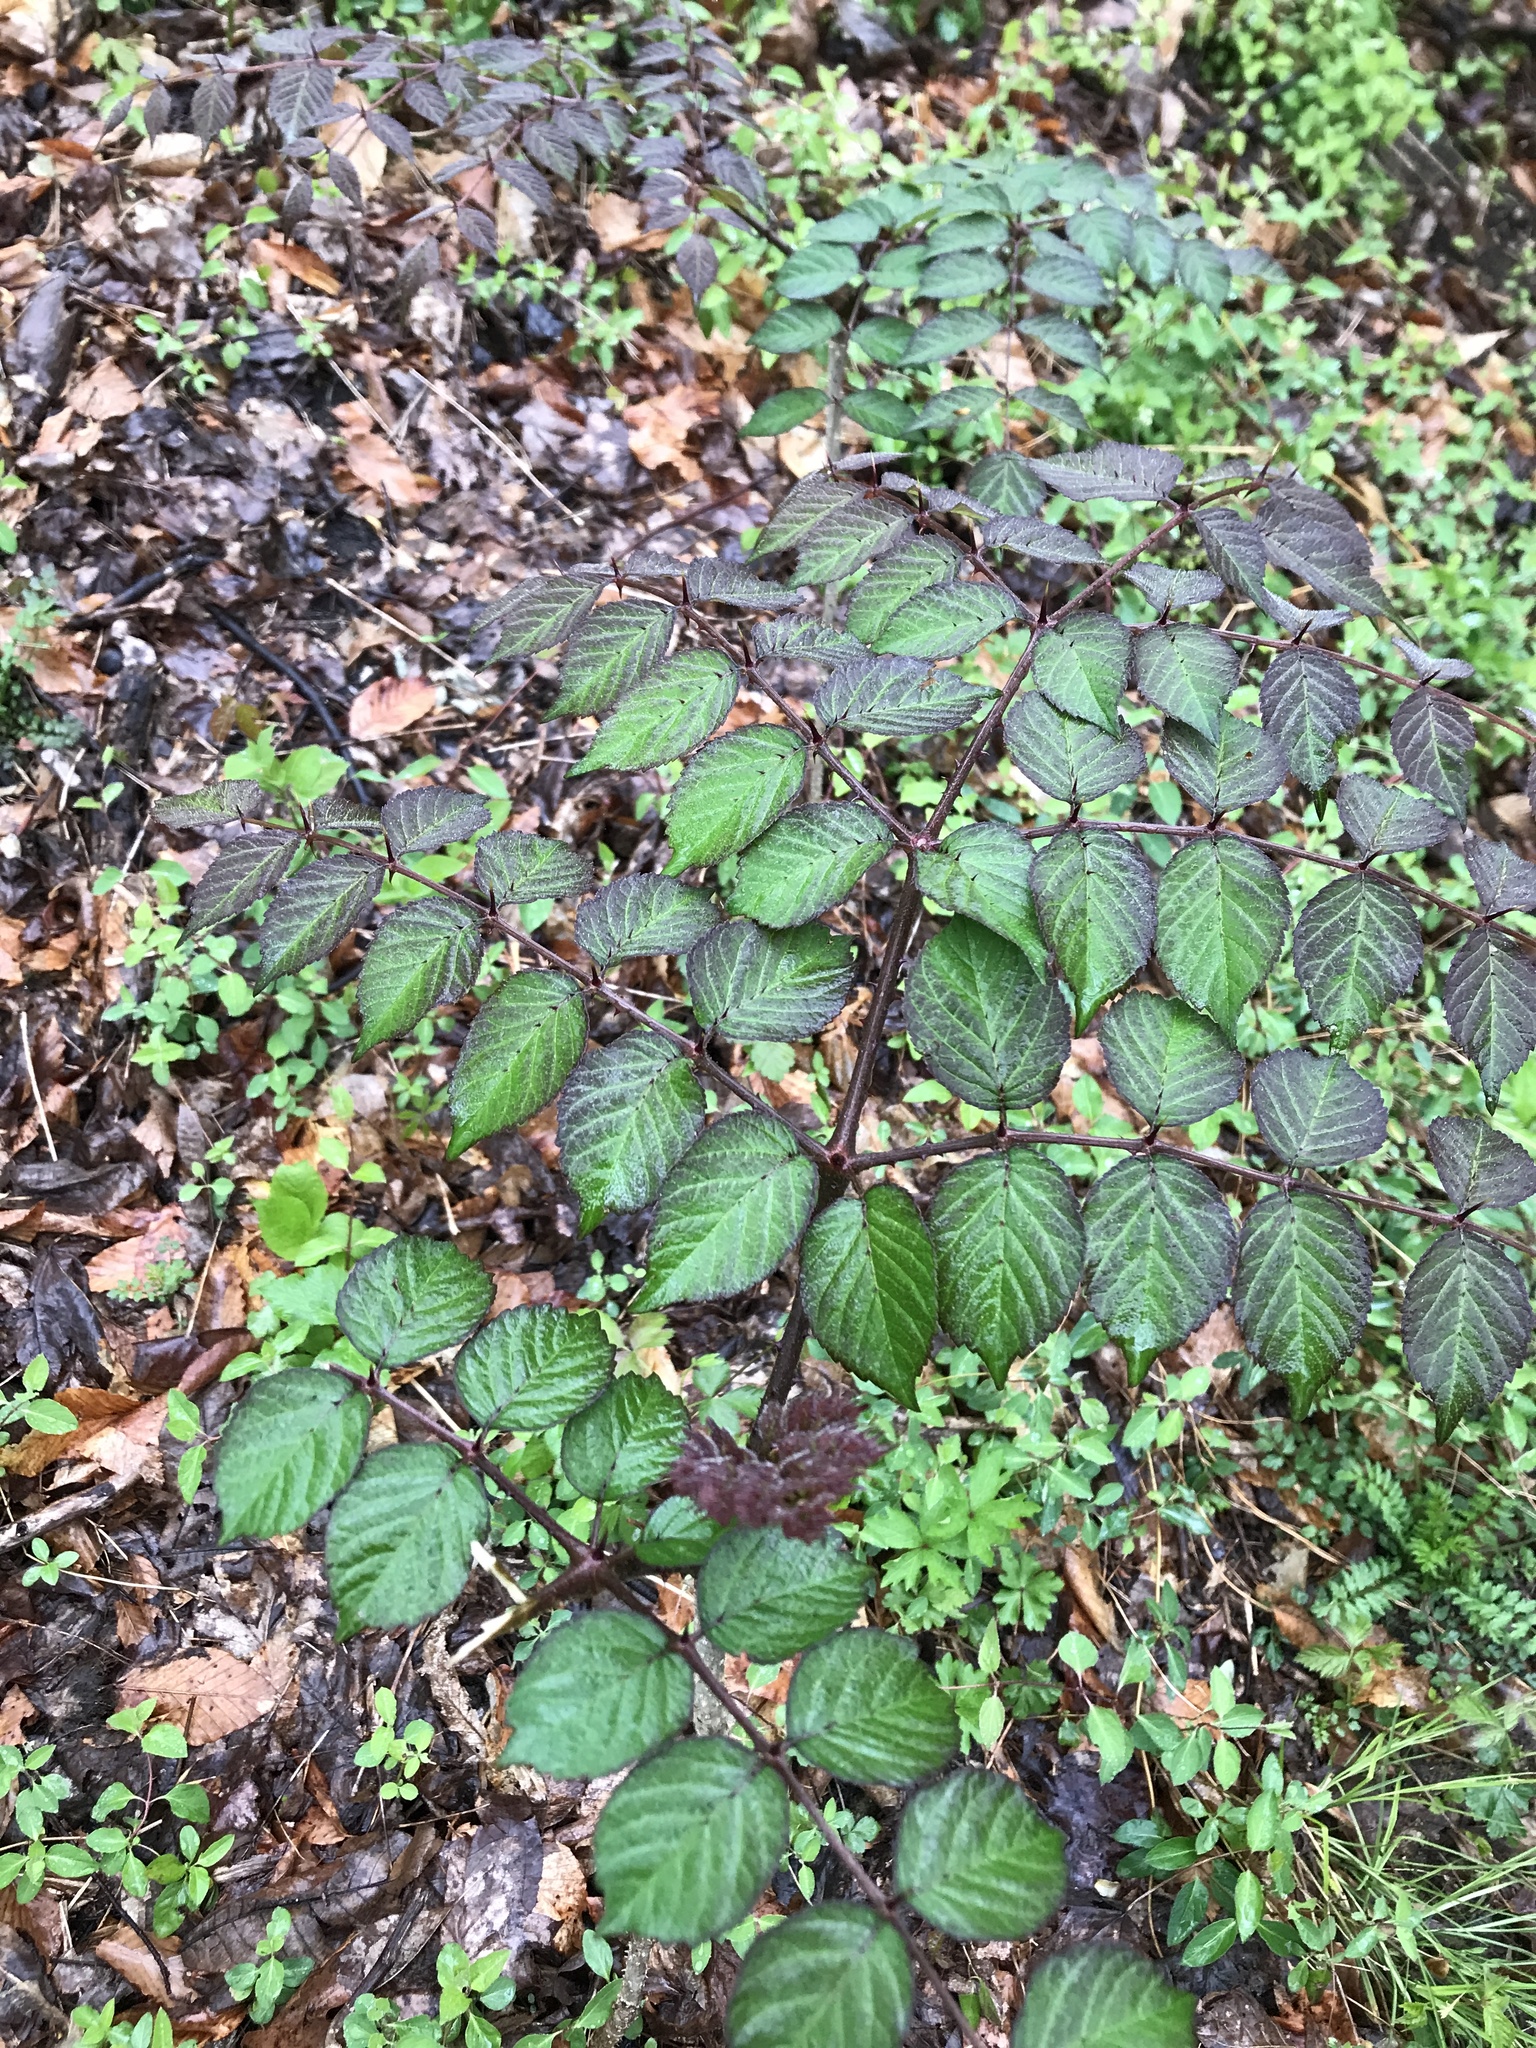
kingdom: Plantae
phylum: Tracheophyta
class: Magnoliopsida
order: Apiales
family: Araliaceae
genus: Aralia
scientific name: Aralia elata
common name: Japanese angelica-tree
